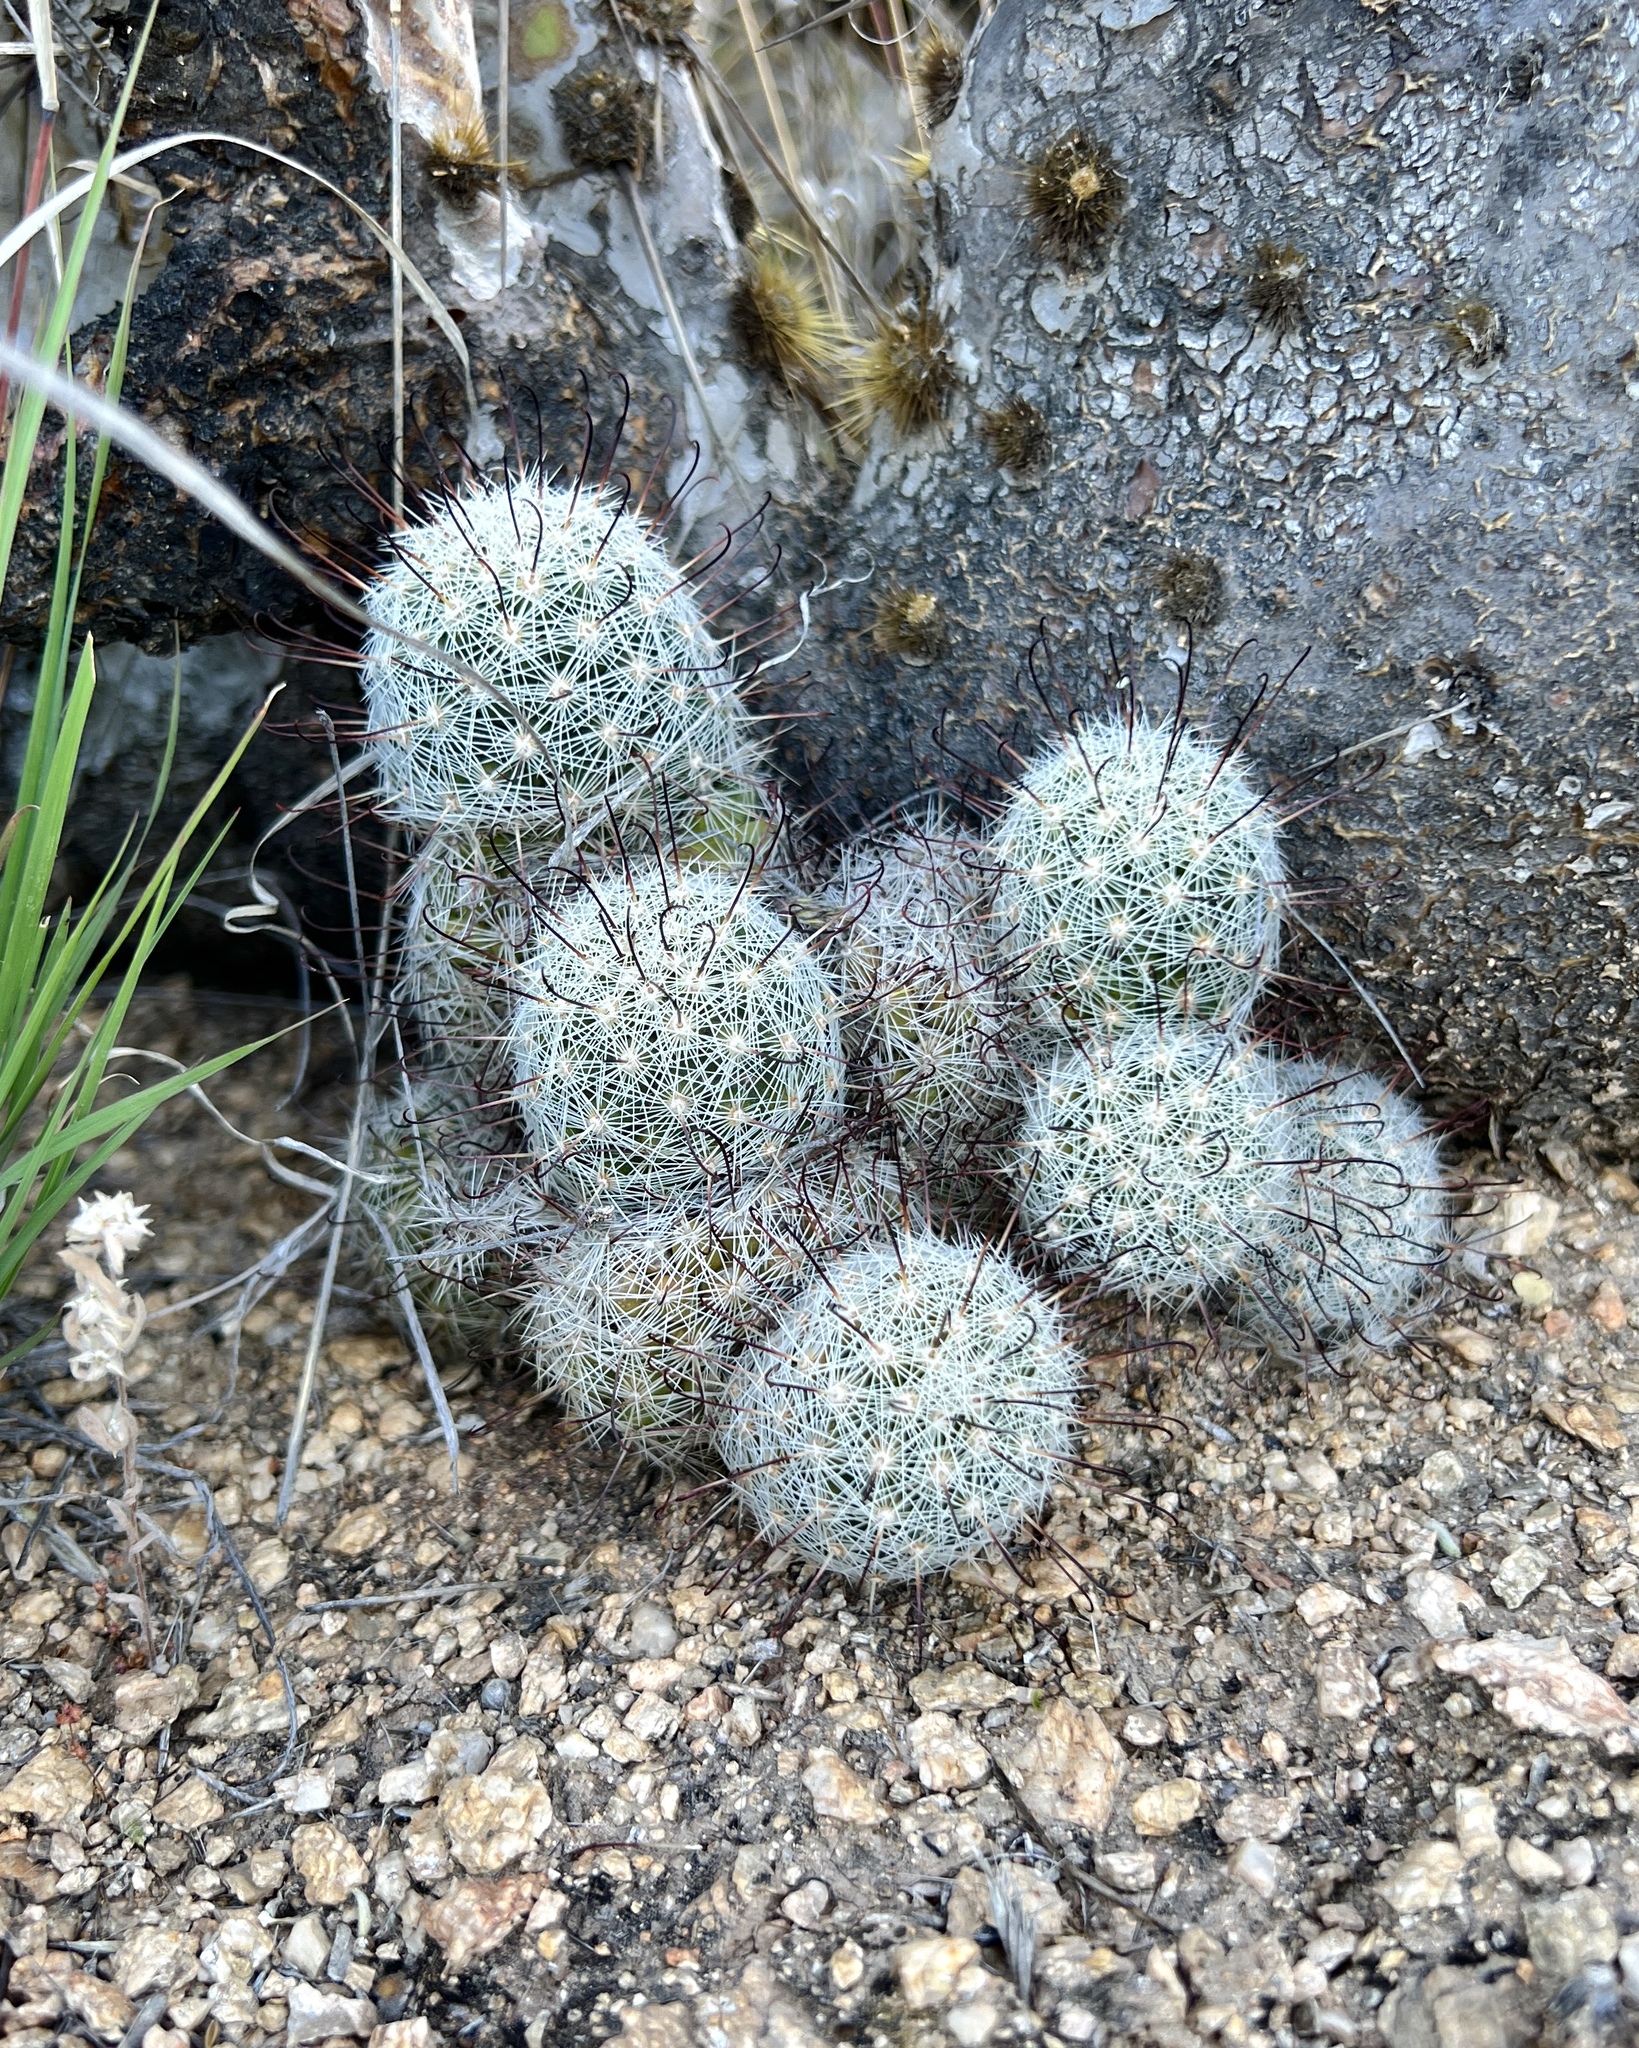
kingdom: Plantae
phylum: Tracheophyta
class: Magnoliopsida
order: Caryophyllales
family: Cactaceae
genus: Cochemiea
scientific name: Cochemiea grahamii
